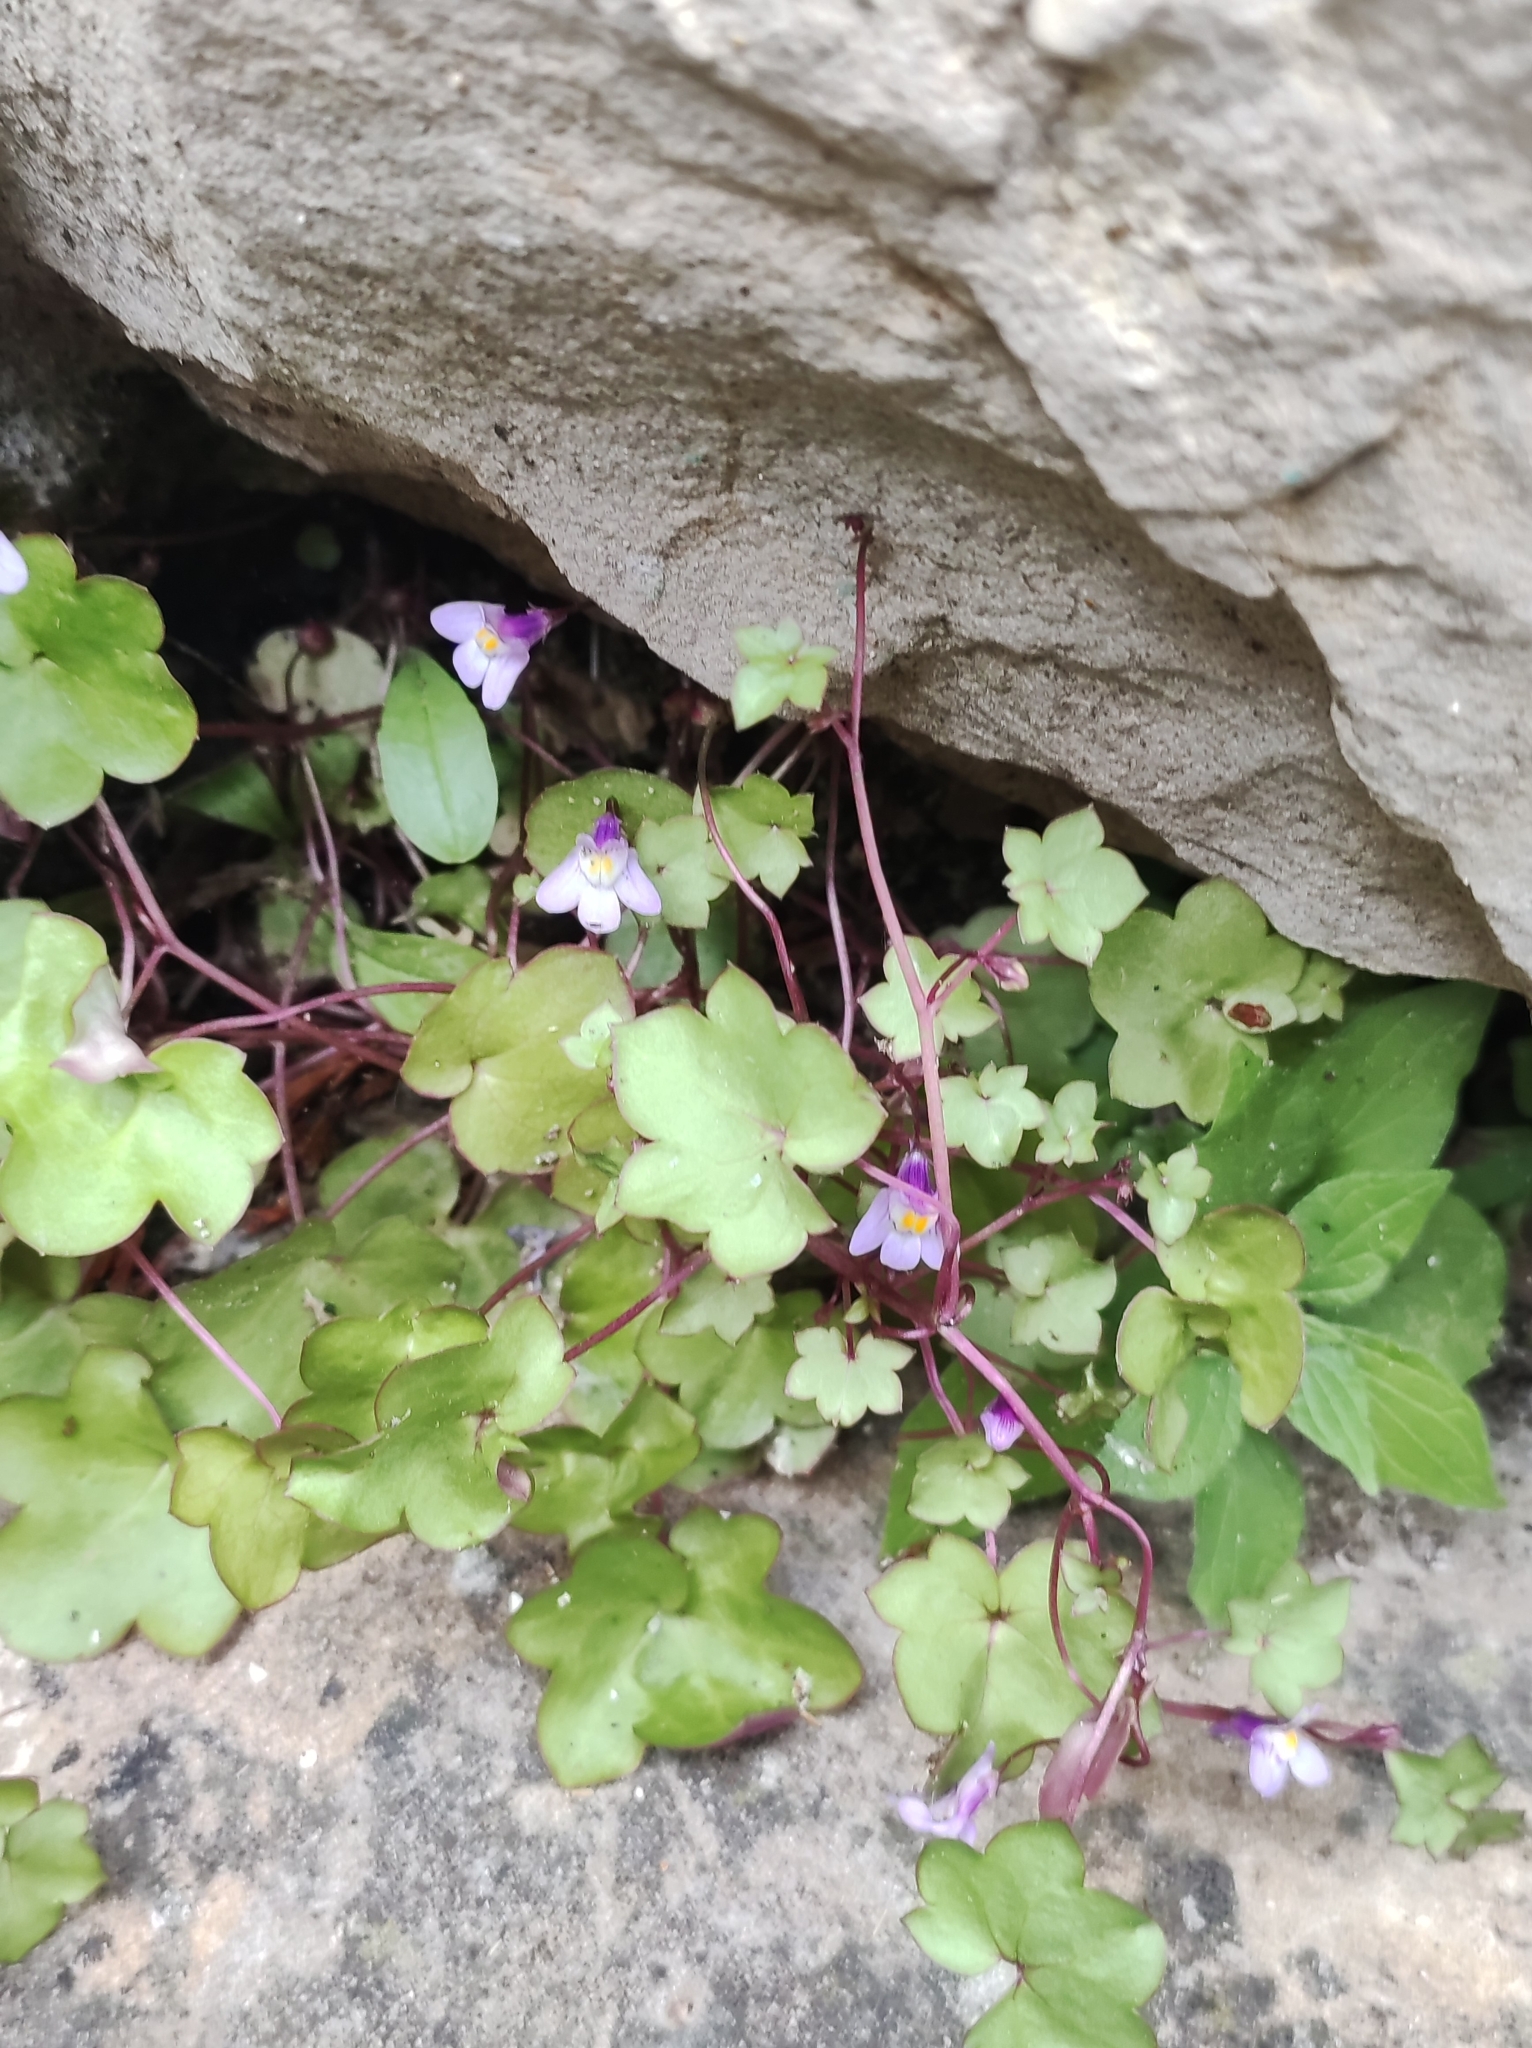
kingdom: Plantae
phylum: Tracheophyta
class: Magnoliopsida
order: Lamiales
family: Plantaginaceae
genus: Cymbalaria
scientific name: Cymbalaria muralis
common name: Ivy-leaved toadflax
